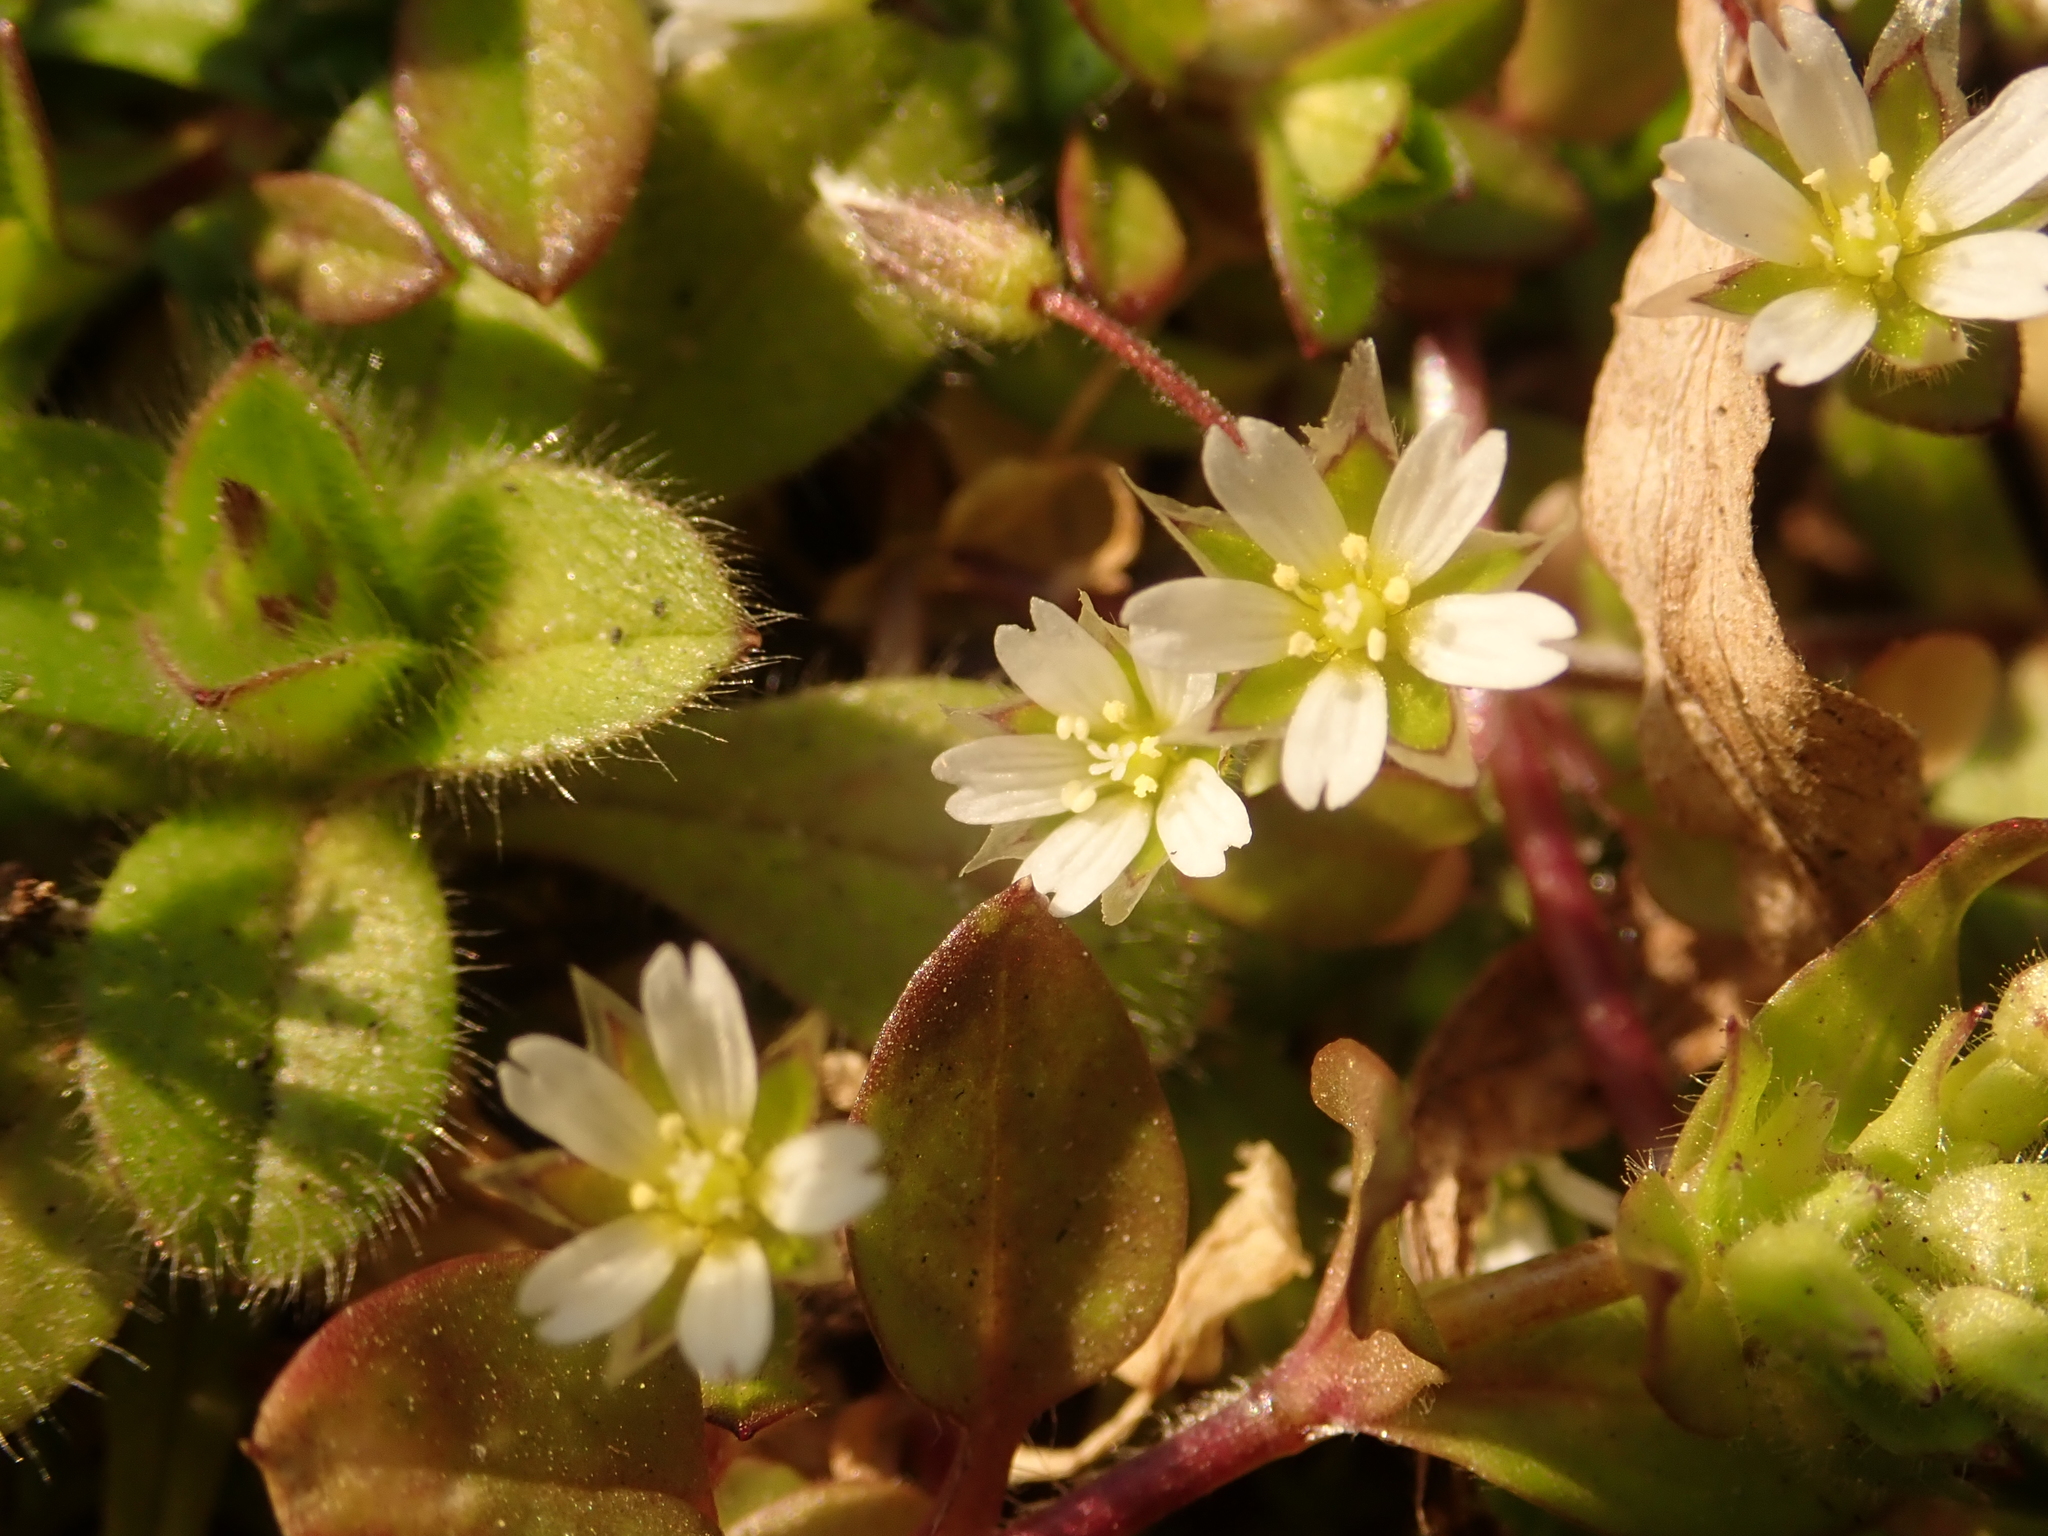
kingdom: Plantae
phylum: Tracheophyta
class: Magnoliopsida
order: Caryophyllales
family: Caryophyllaceae
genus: Cerastium
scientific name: Cerastium semidecandrum
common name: Little mouse-ear
